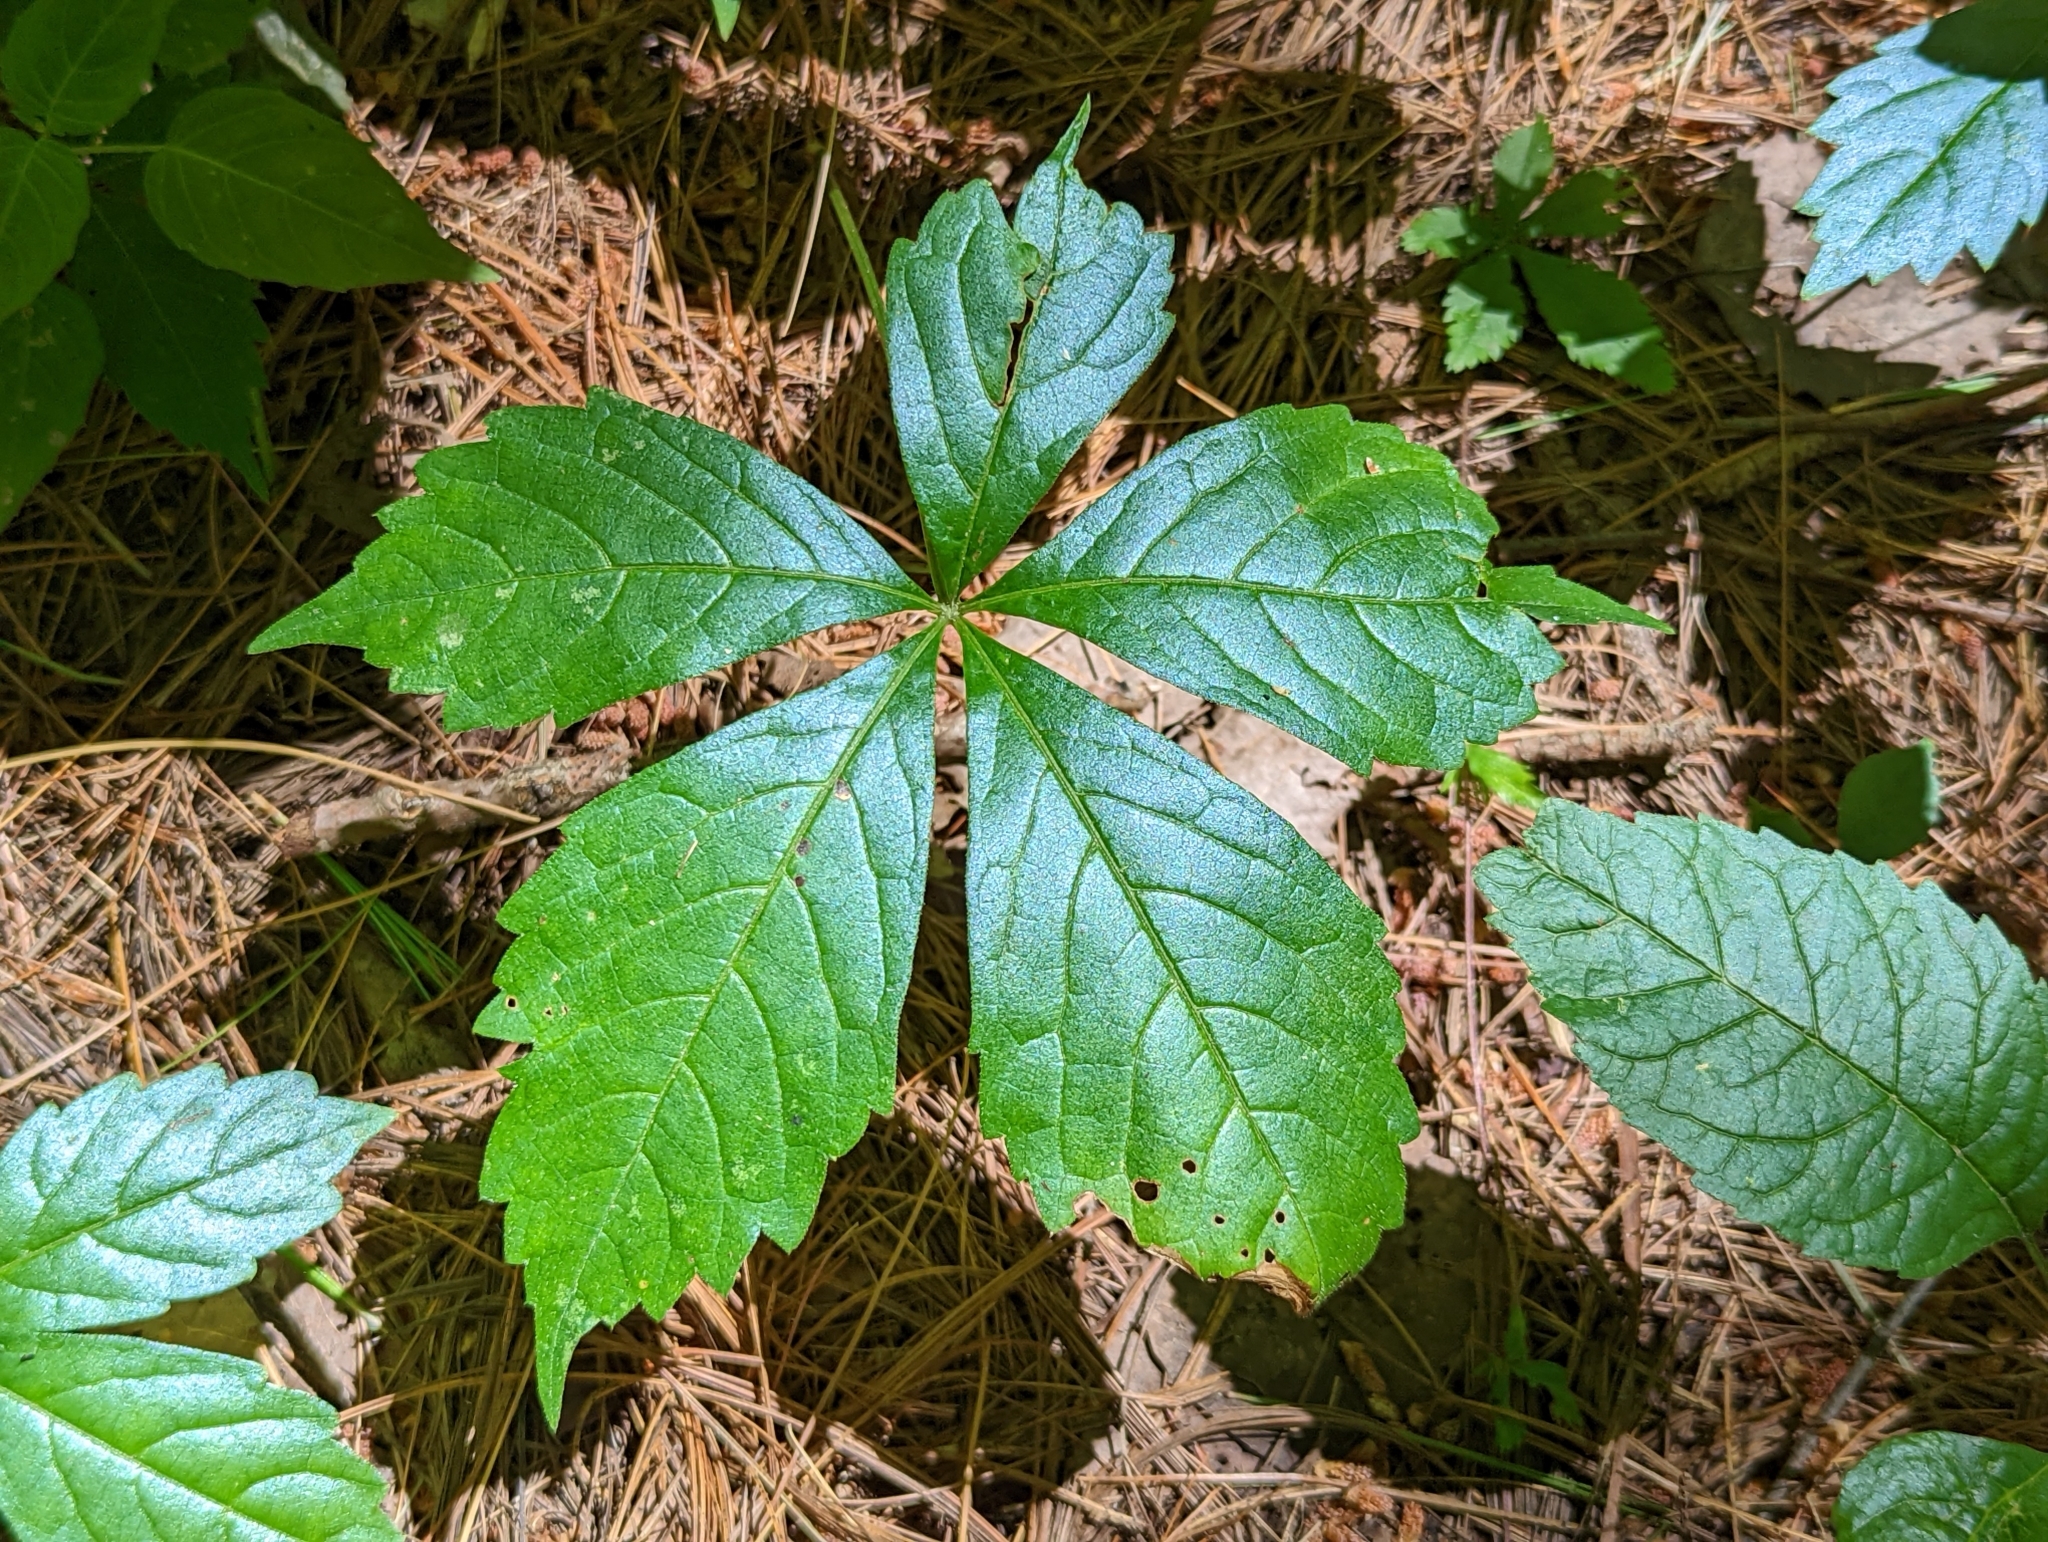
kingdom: Plantae
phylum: Tracheophyta
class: Magnoliopsida
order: Vitales
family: Vitaceae
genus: Parthenocissus
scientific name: Parthenocissus quinquefolia
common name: Virginia-creeper
